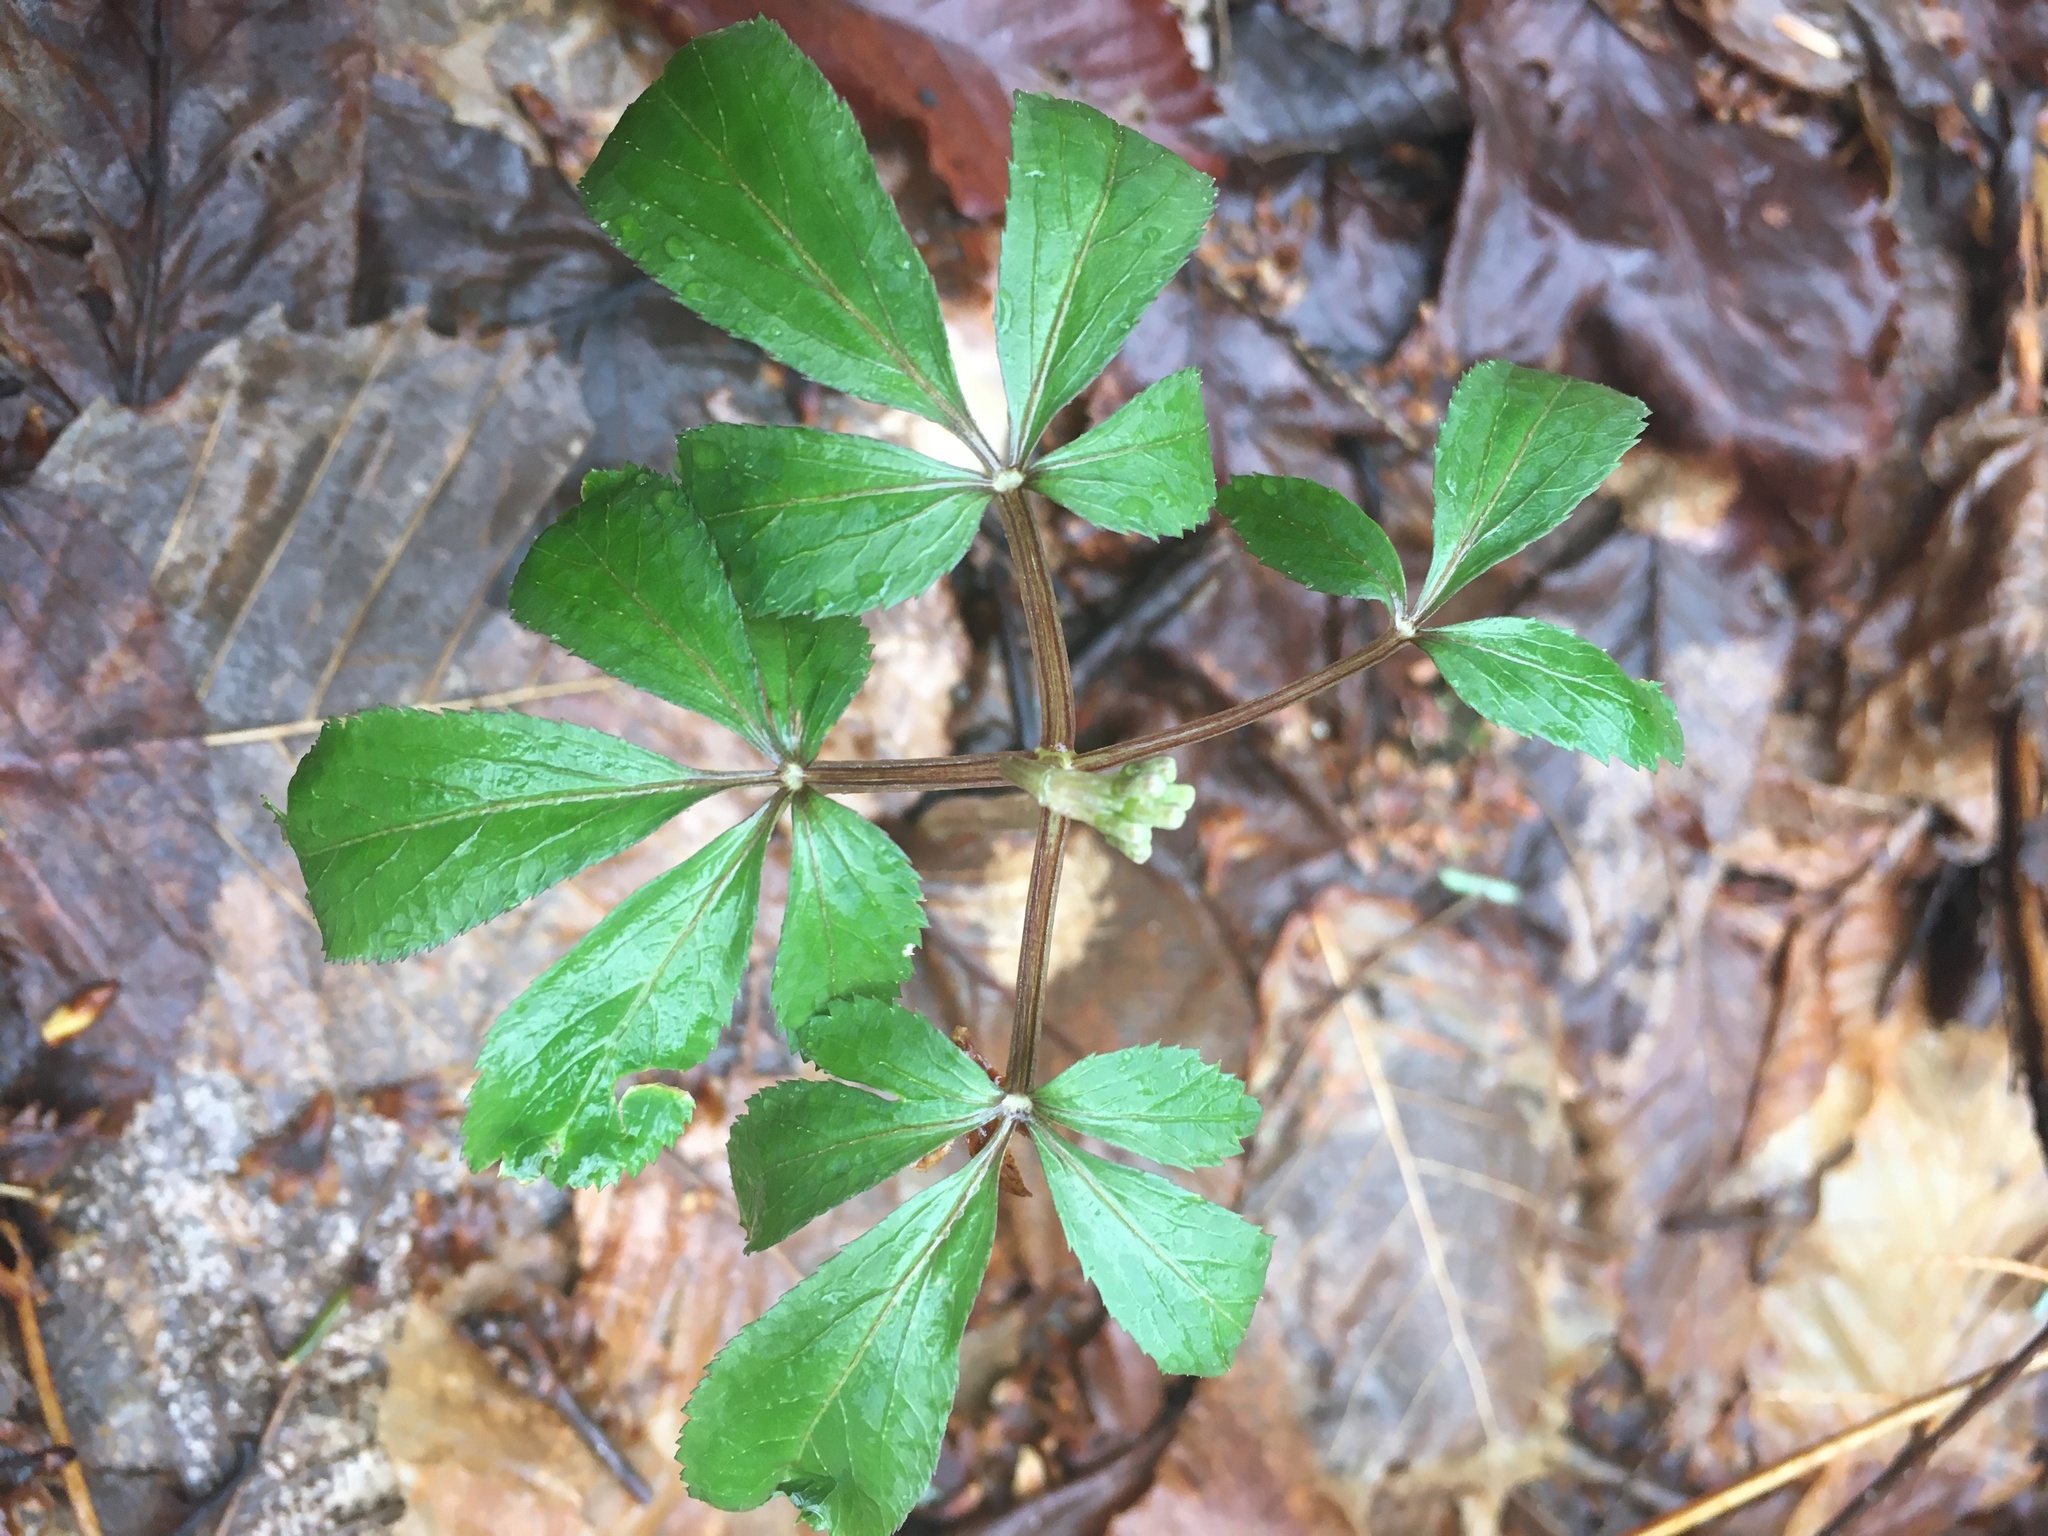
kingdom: Plantae
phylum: Tracheophyta
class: Magnoliopsida
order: Apiales
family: Araliaceae
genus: Panax
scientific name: Panax trifolius
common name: Dwarf ginseng
